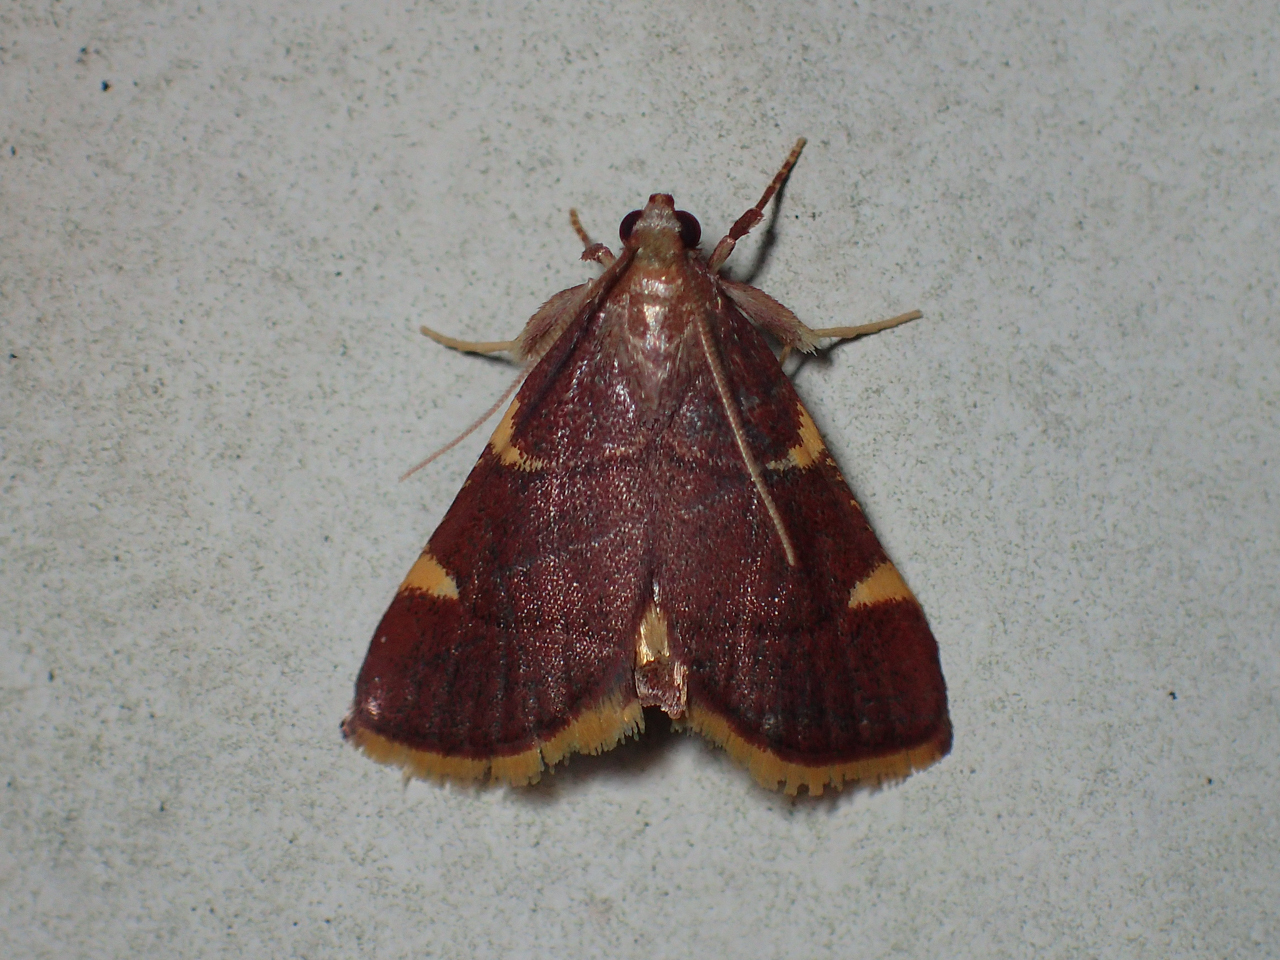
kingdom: Animalia
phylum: Arthropoda
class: Insecta
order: Lepidoptera
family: Pyralidae
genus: Hypsopygia
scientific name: Hypsopygia olinalis
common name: Yellow-fringed dolichomia moth
